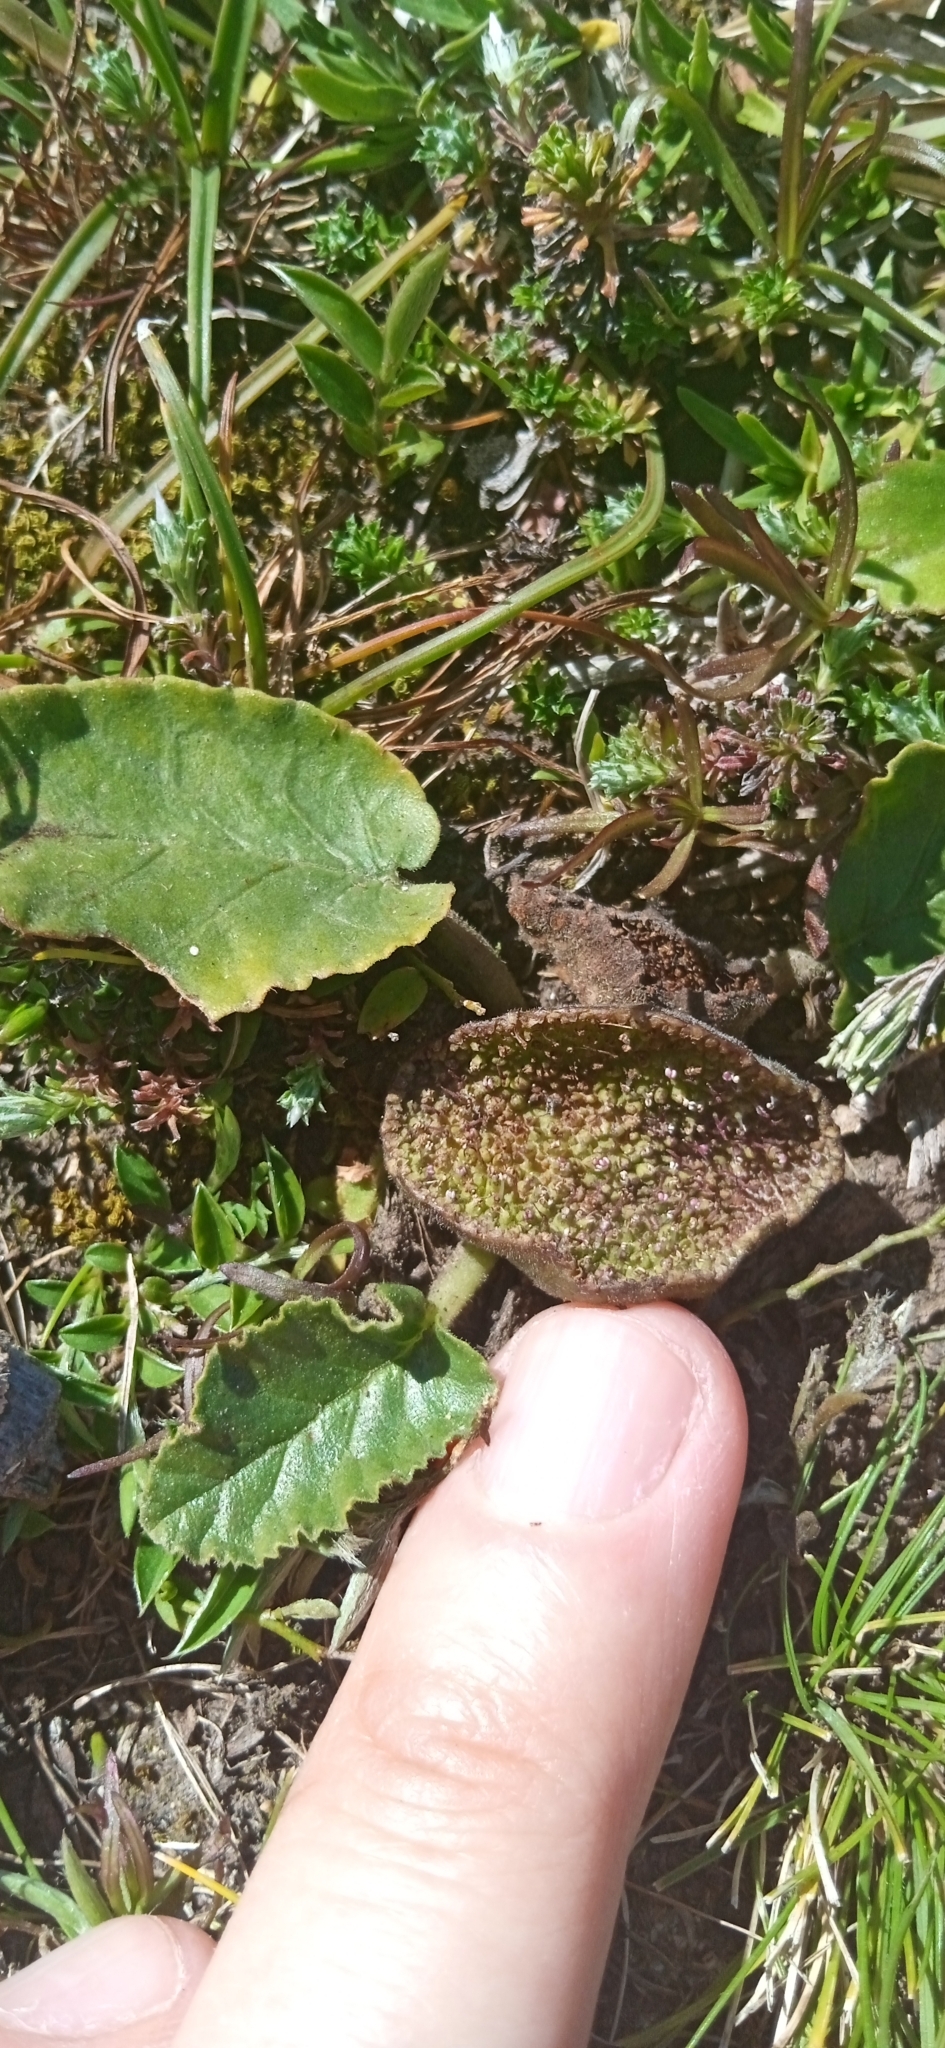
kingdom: Plantae
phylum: Tracheophyta
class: Magnoliopsida
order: Rosales
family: Moraceae
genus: Dorstenia
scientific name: Dorstenia brasiliensis
